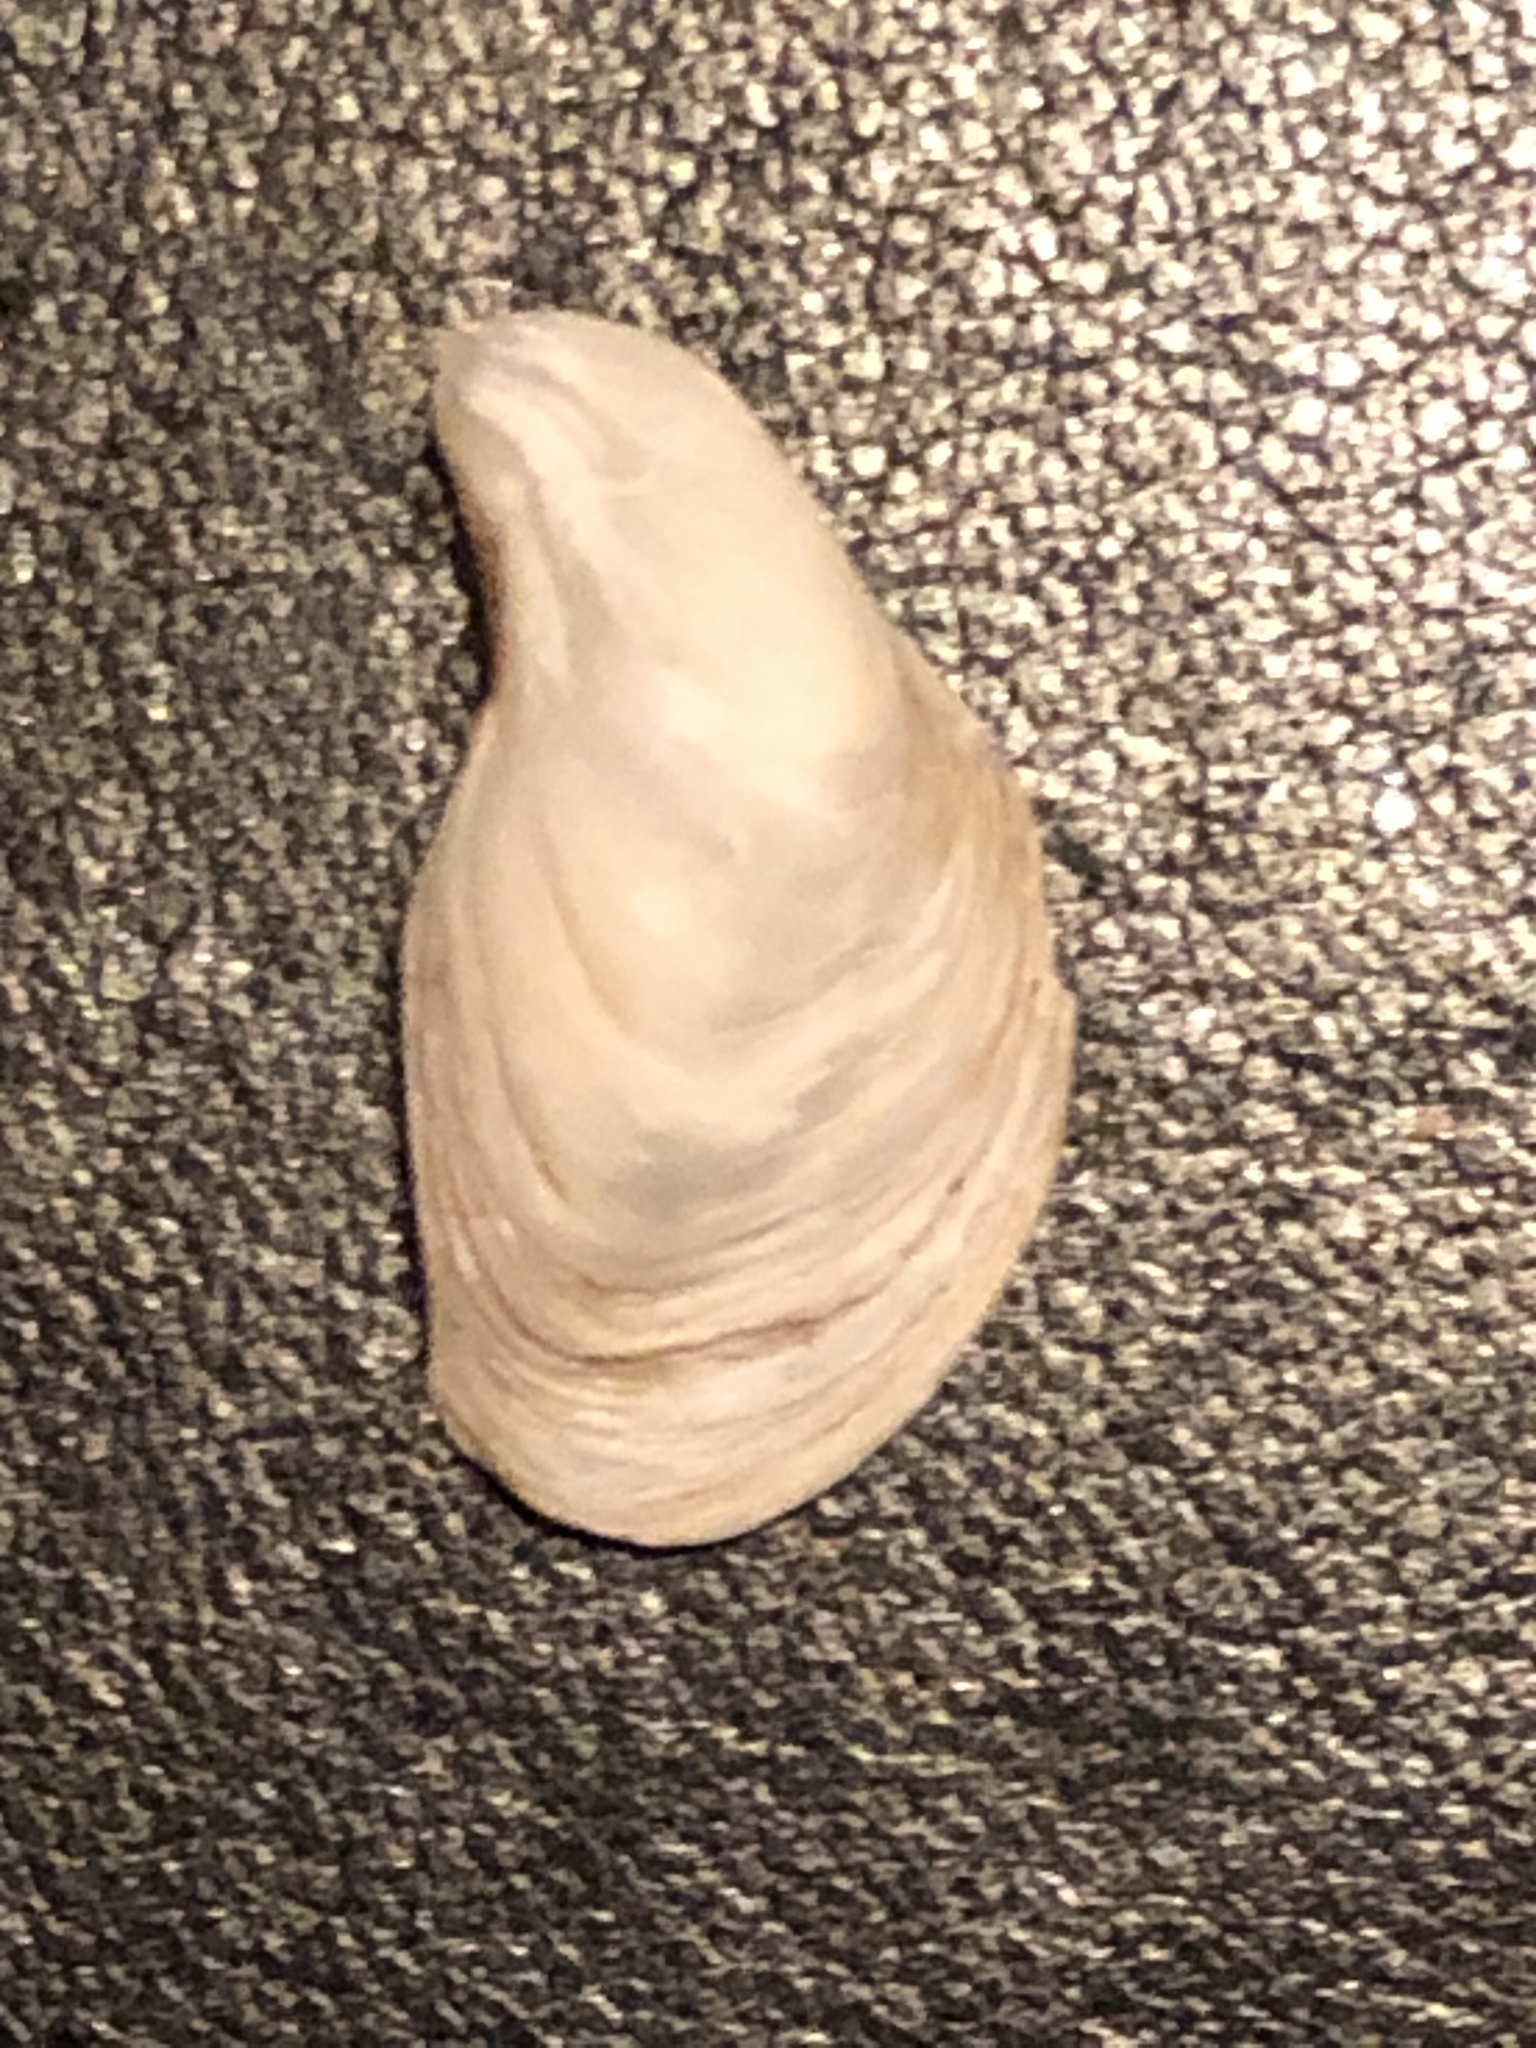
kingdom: Animalia
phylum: Mollusca
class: Bivalvia
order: Myida
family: Dreissenidae
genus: Dreissena
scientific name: Dreissena bugensis
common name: Quagga mussel
